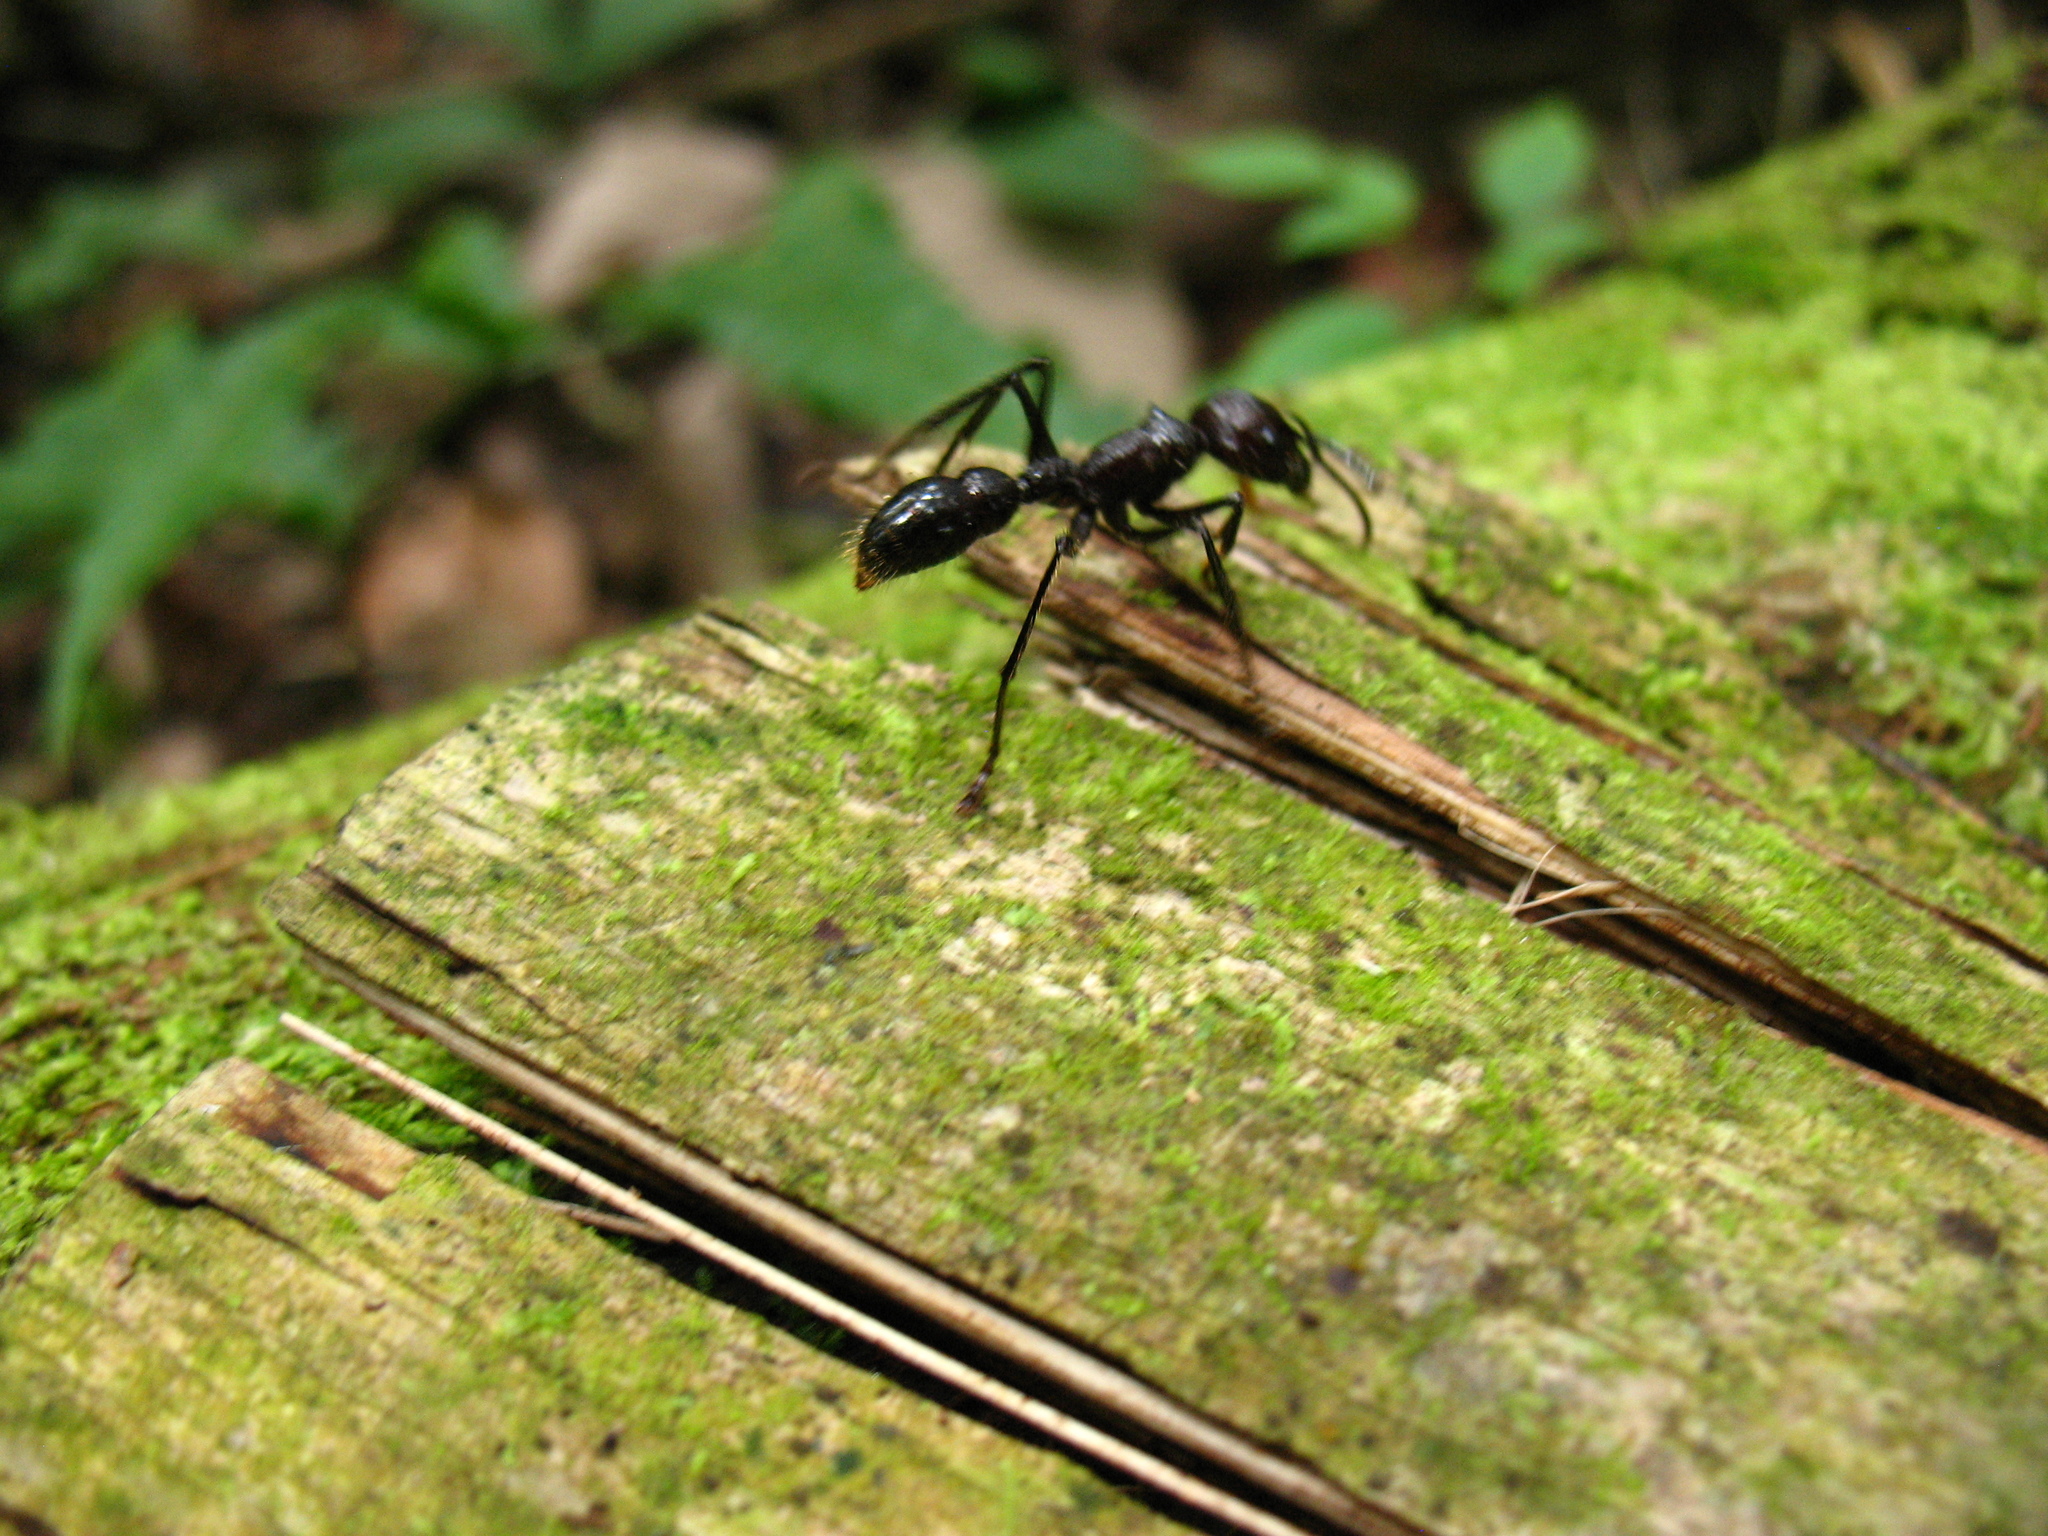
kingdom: Animalia
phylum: Arthropoda
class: Insecta
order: Hymenoptera
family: Formicidae
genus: Paraponera
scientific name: Paraponera clavata
